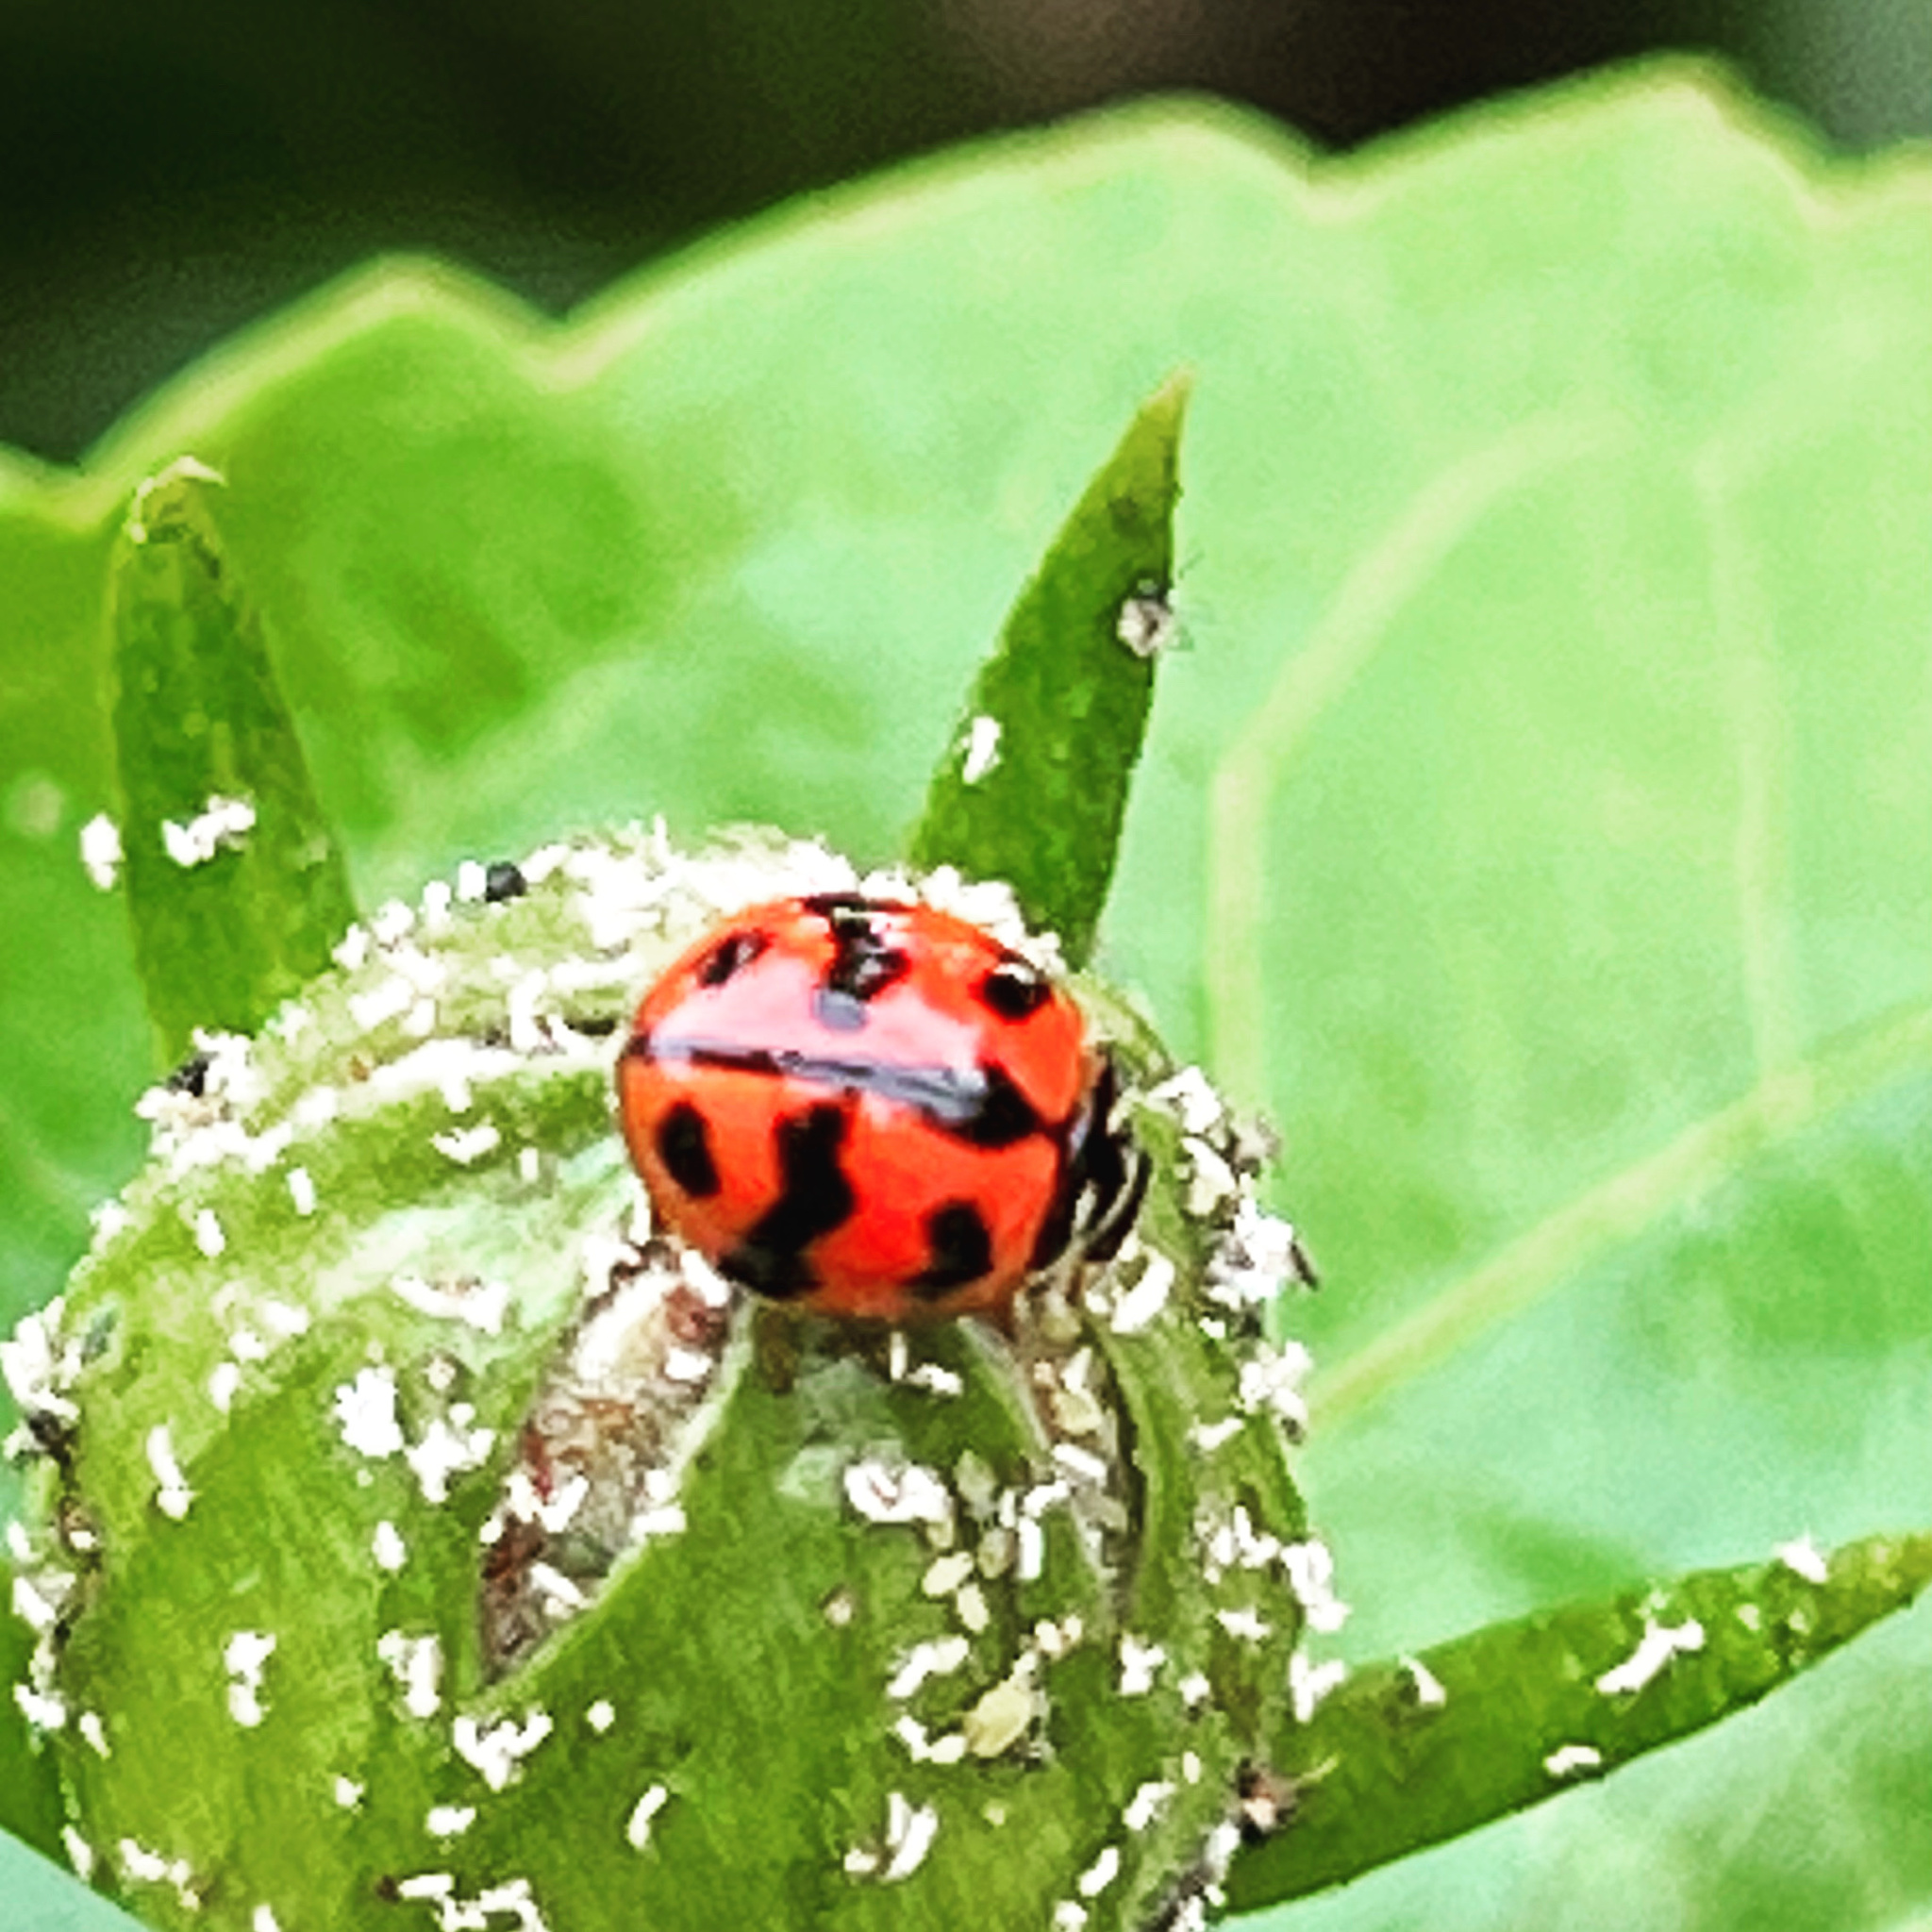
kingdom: Animalia
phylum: Arthropoda
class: Insecta
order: Coleoptera
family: Coccinellidae
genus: Cheilomenes
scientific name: Cheilomenes sexmaculata
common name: Ladybird beetle
